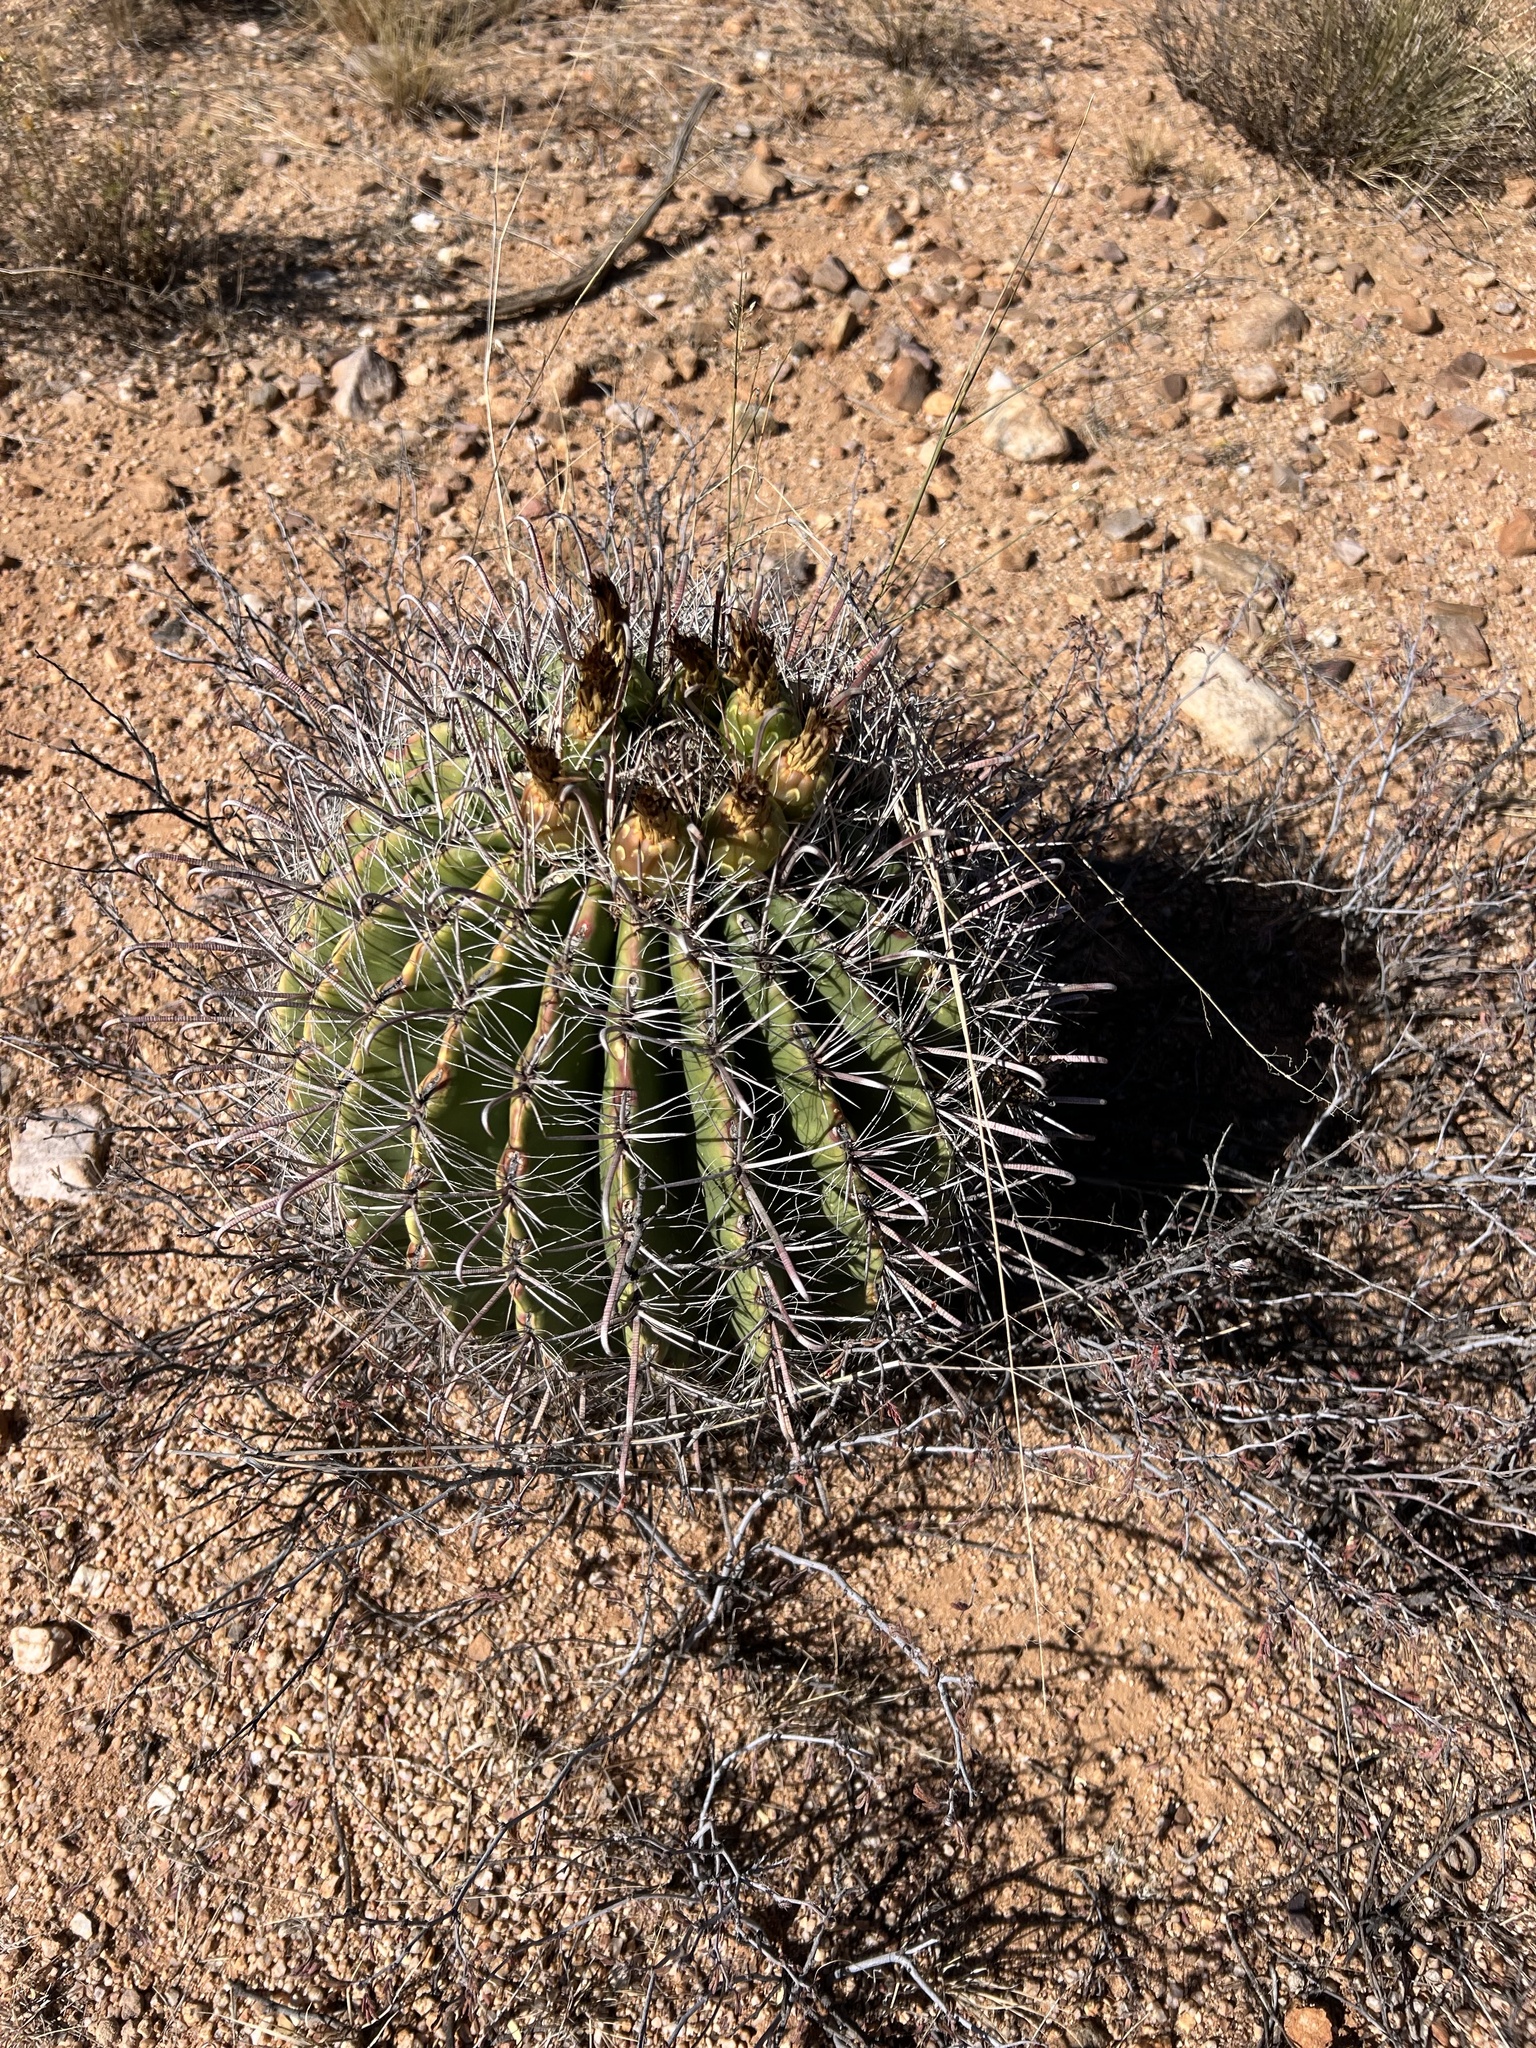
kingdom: Plantae
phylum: Tracheophyta
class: Magnoliopsida
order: Caryophyllales
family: Cactaceae
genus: Ferocactus
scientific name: Ferocactus wislizeni
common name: Candy barrel cactus
